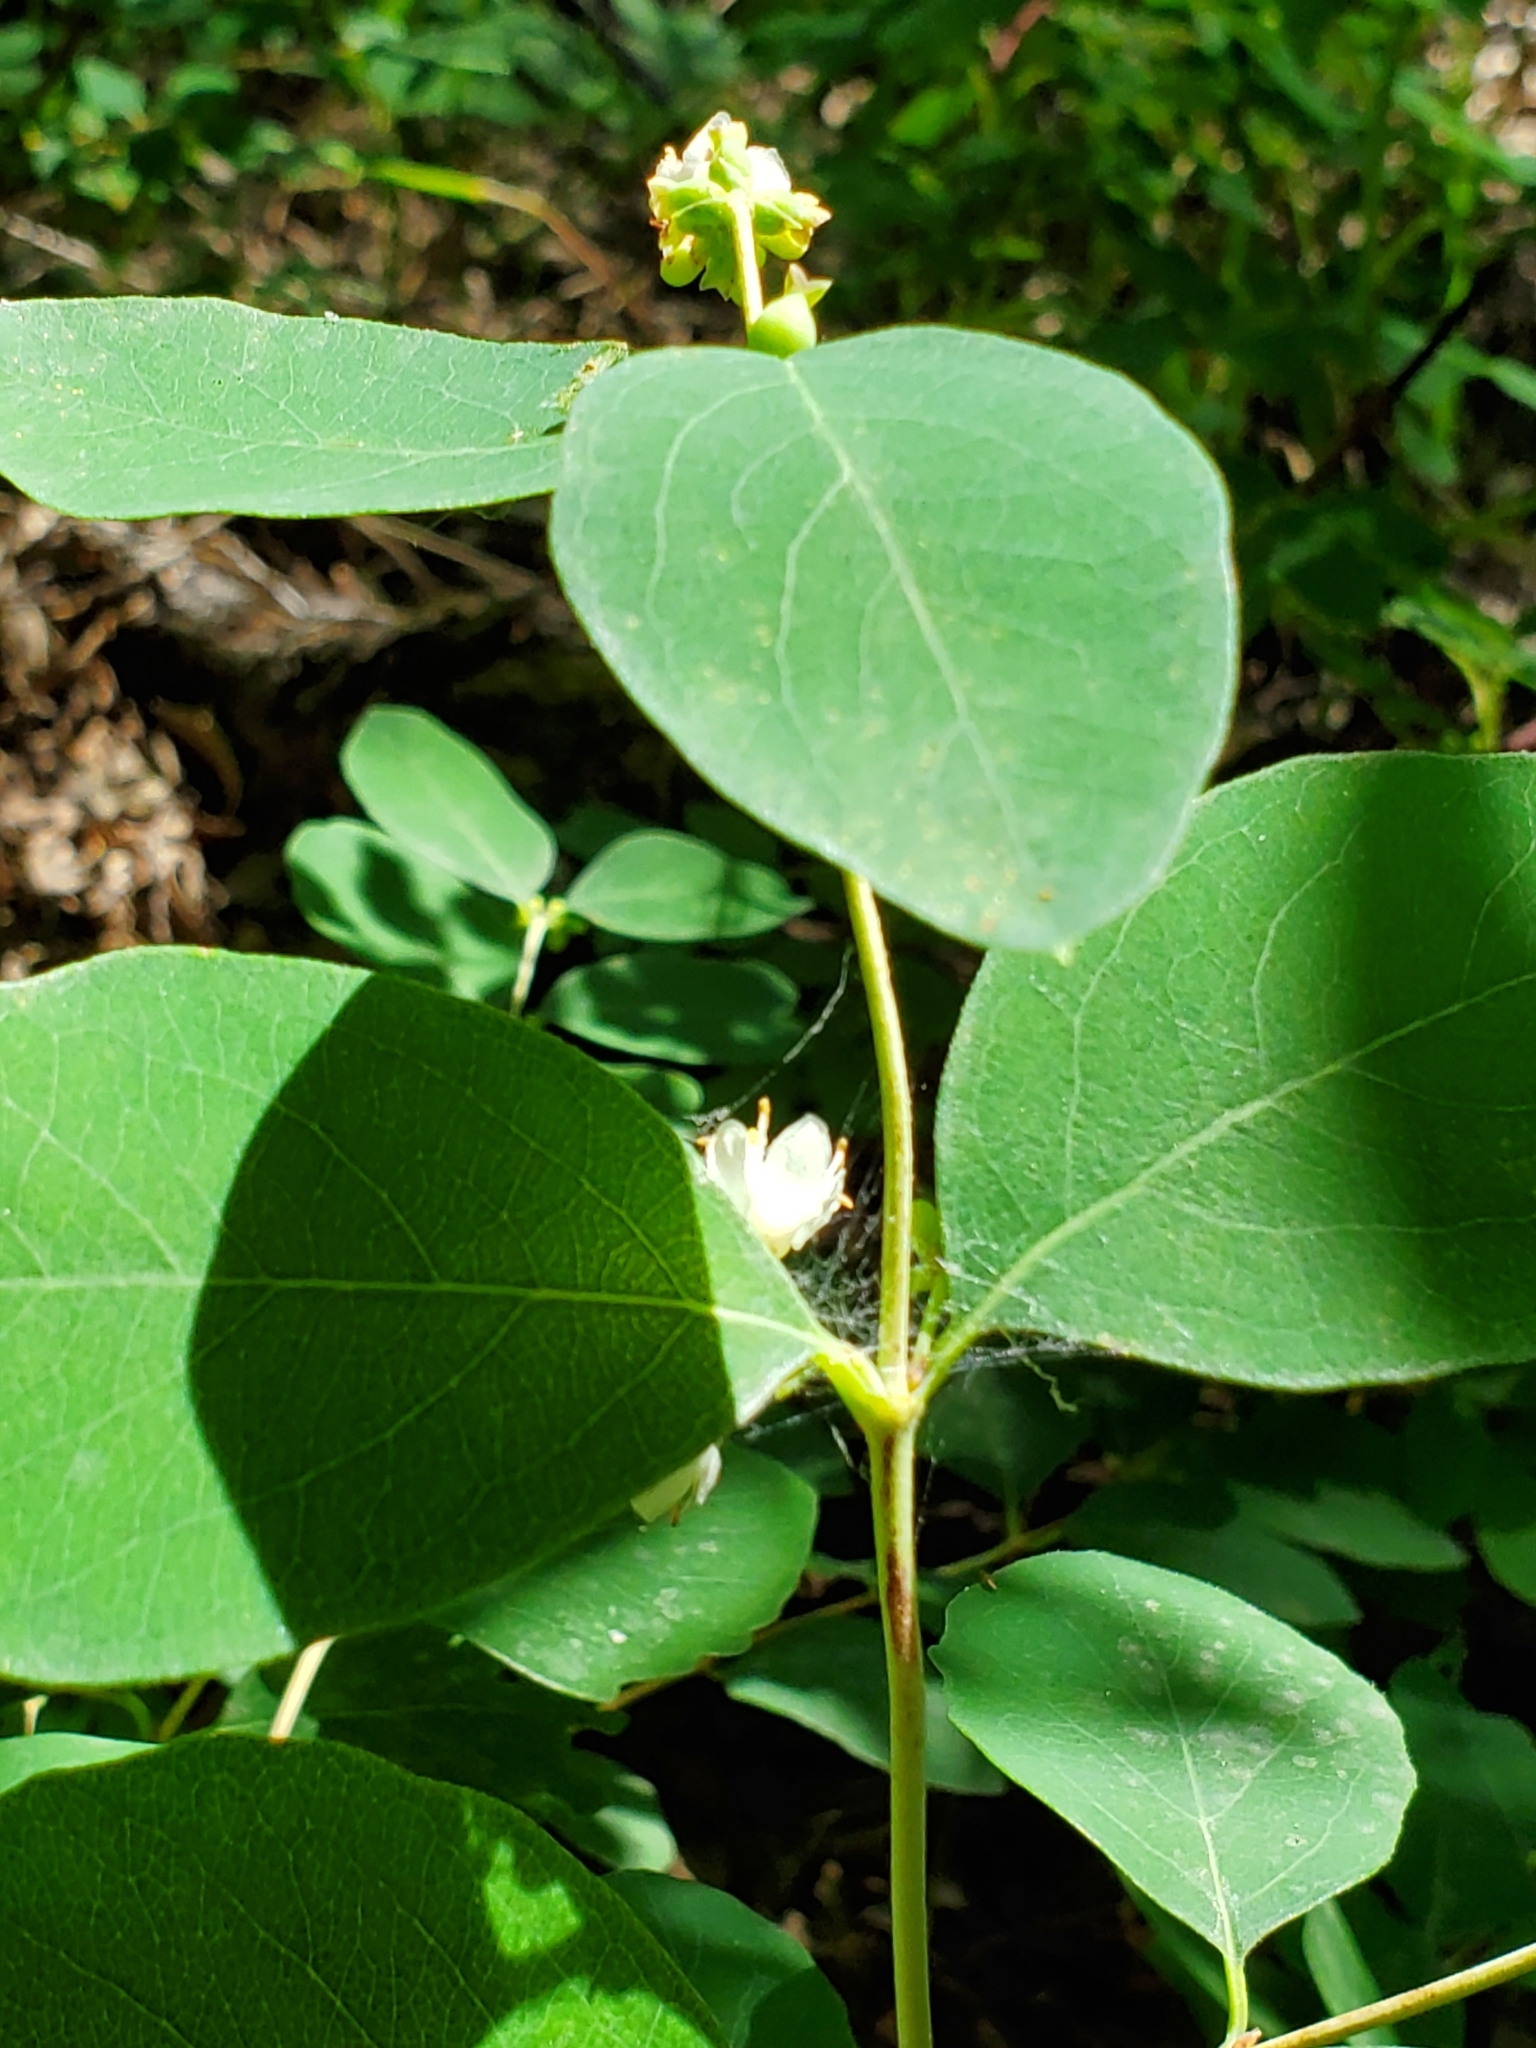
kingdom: Plantae
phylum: Tracheophyta
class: Magnoliopsida
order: Dipsacales
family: Caprifoliaceae
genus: Symphoricarpos
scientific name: Symphoricarpos occidentalis
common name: Wolfberry
